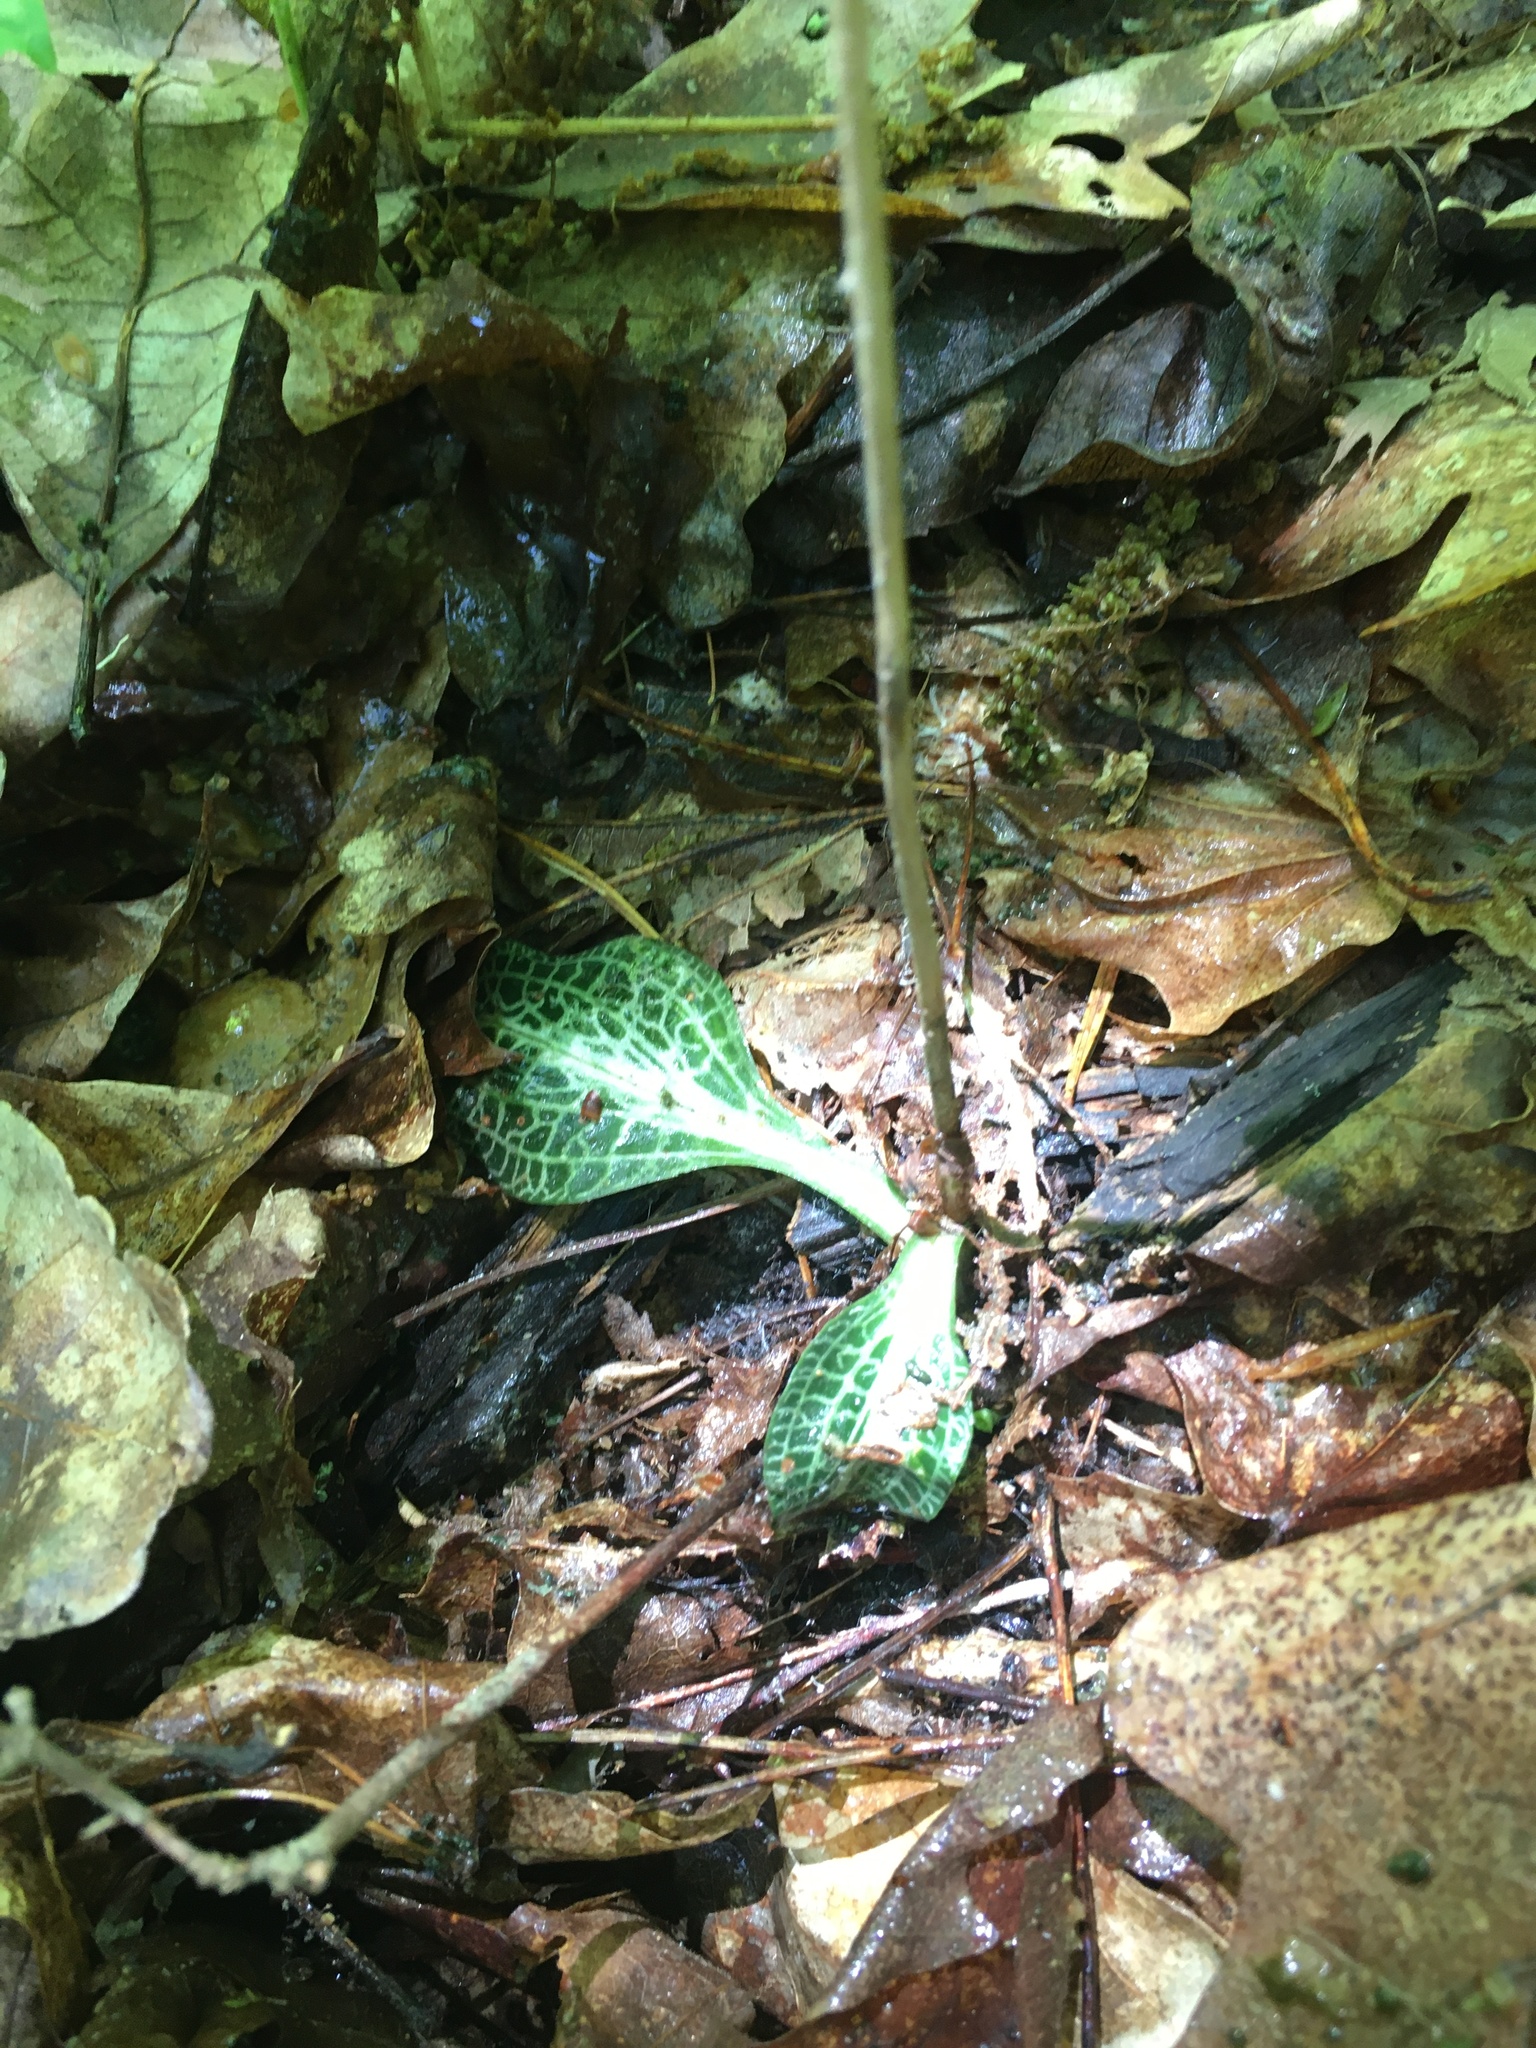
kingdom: Plantae
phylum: Tracheophyta
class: Liliopsida
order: Asparagales
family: Orchidaceae
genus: Goodyera
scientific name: Goodyera pubescens
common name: Downy rattlesnake-plantain
